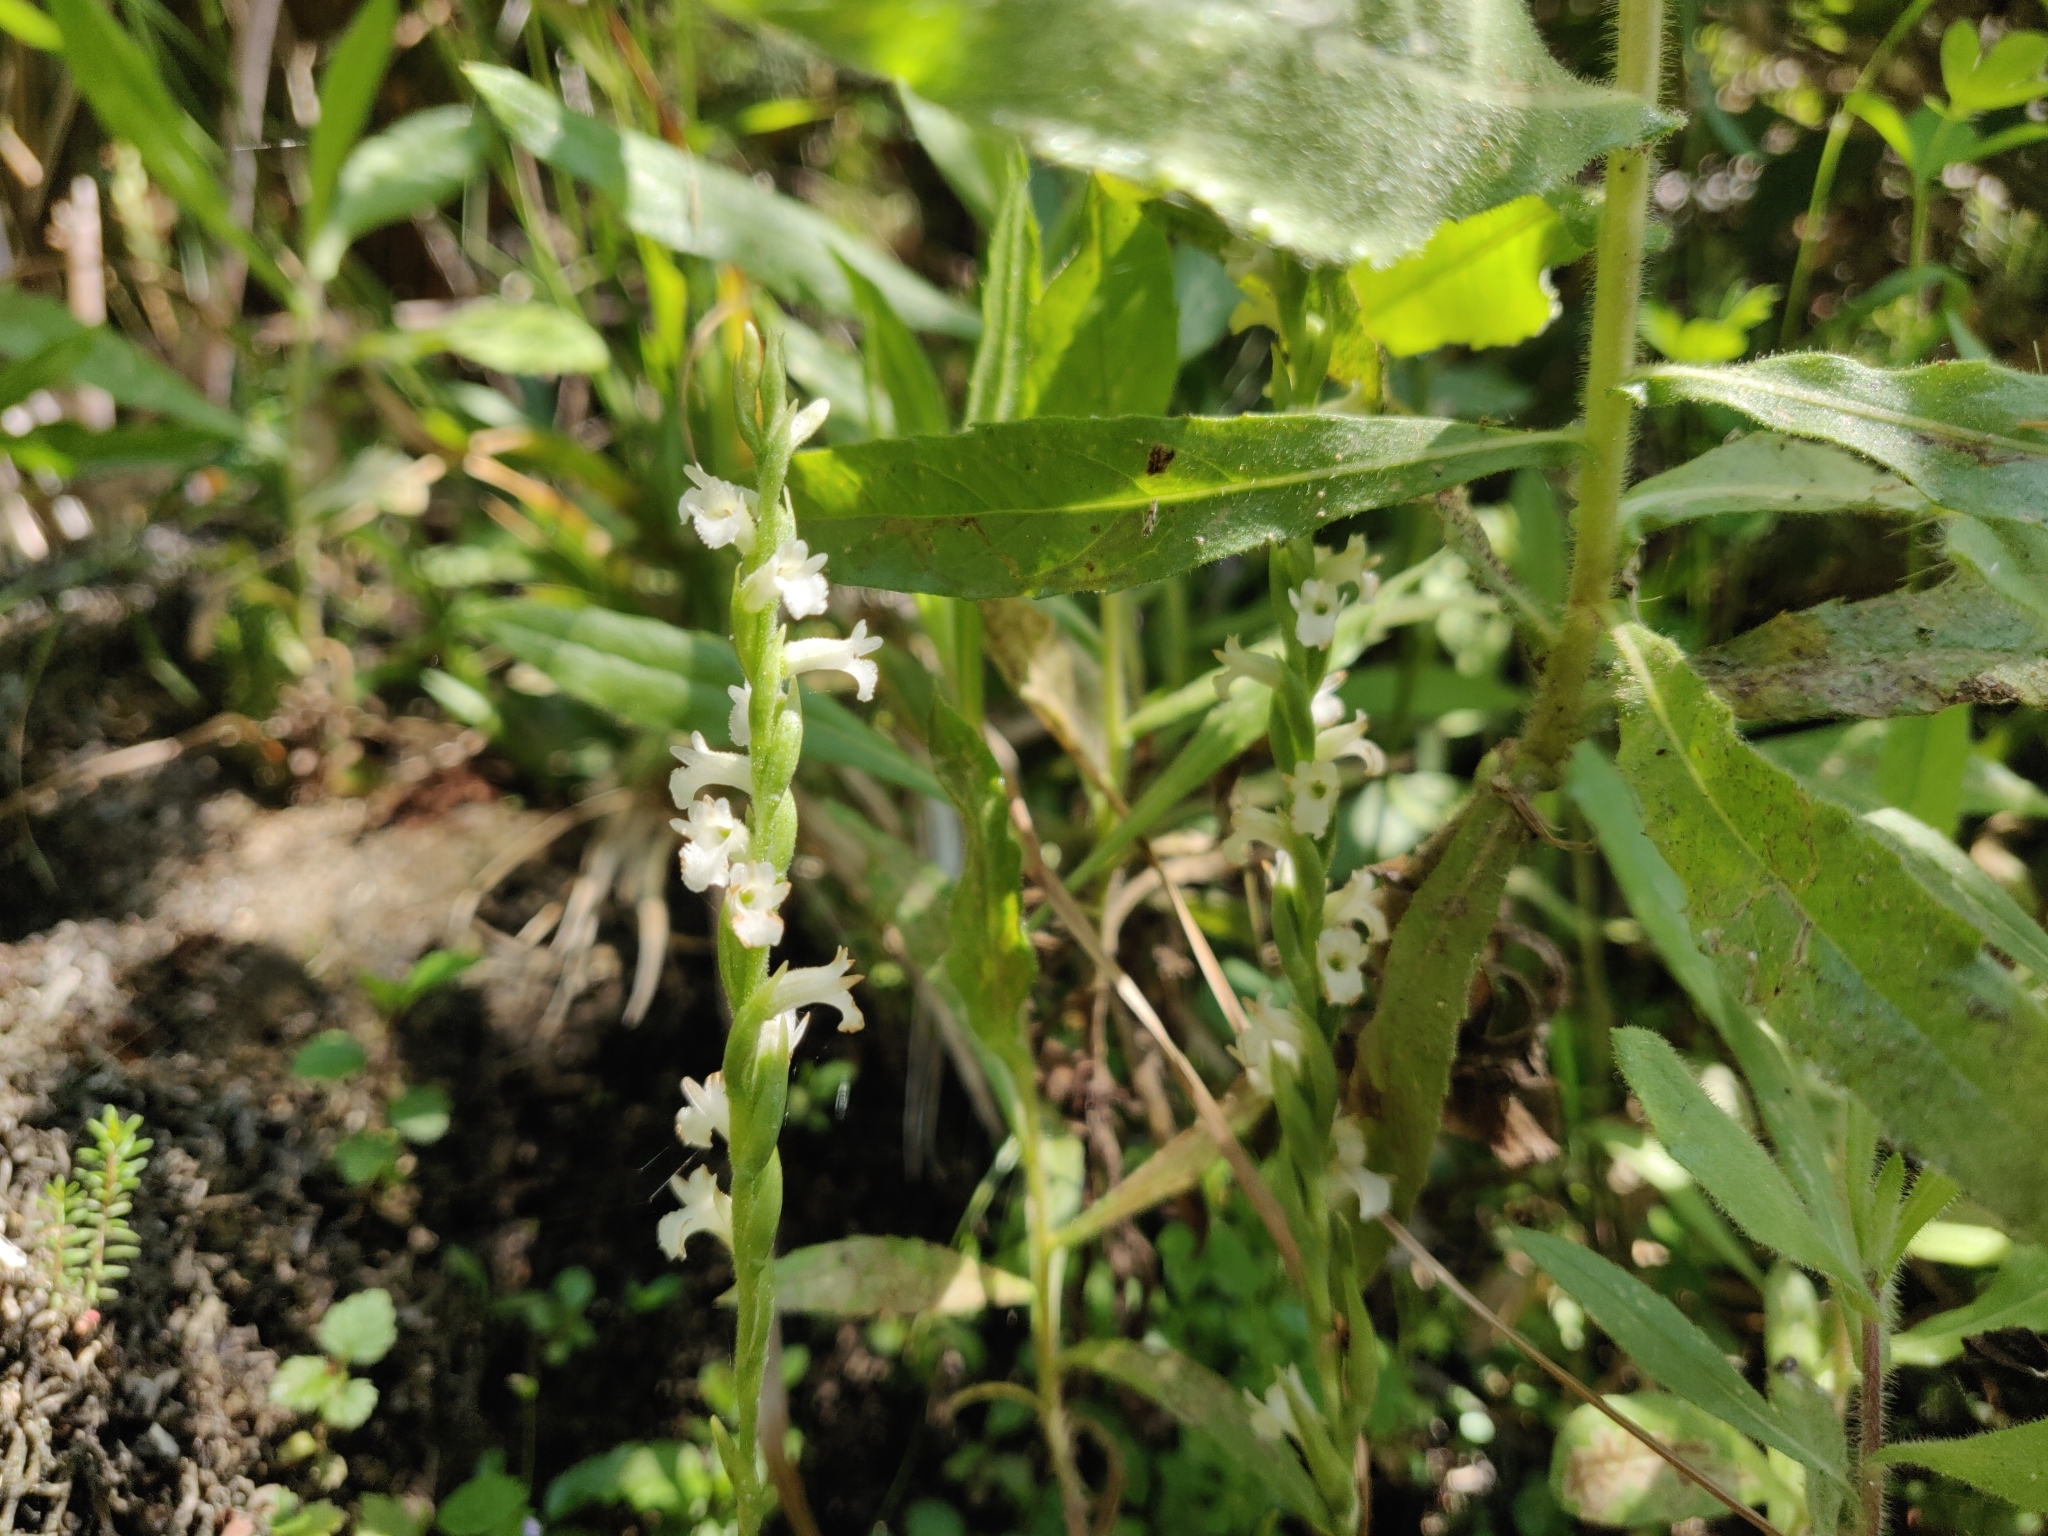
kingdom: Plantae
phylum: Tracheophyta
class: Liliopsida
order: Asparagales
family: Orchidaceae
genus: Spiranthes
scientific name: Spiranthes aestivalis
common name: Summer lady's-tresses
